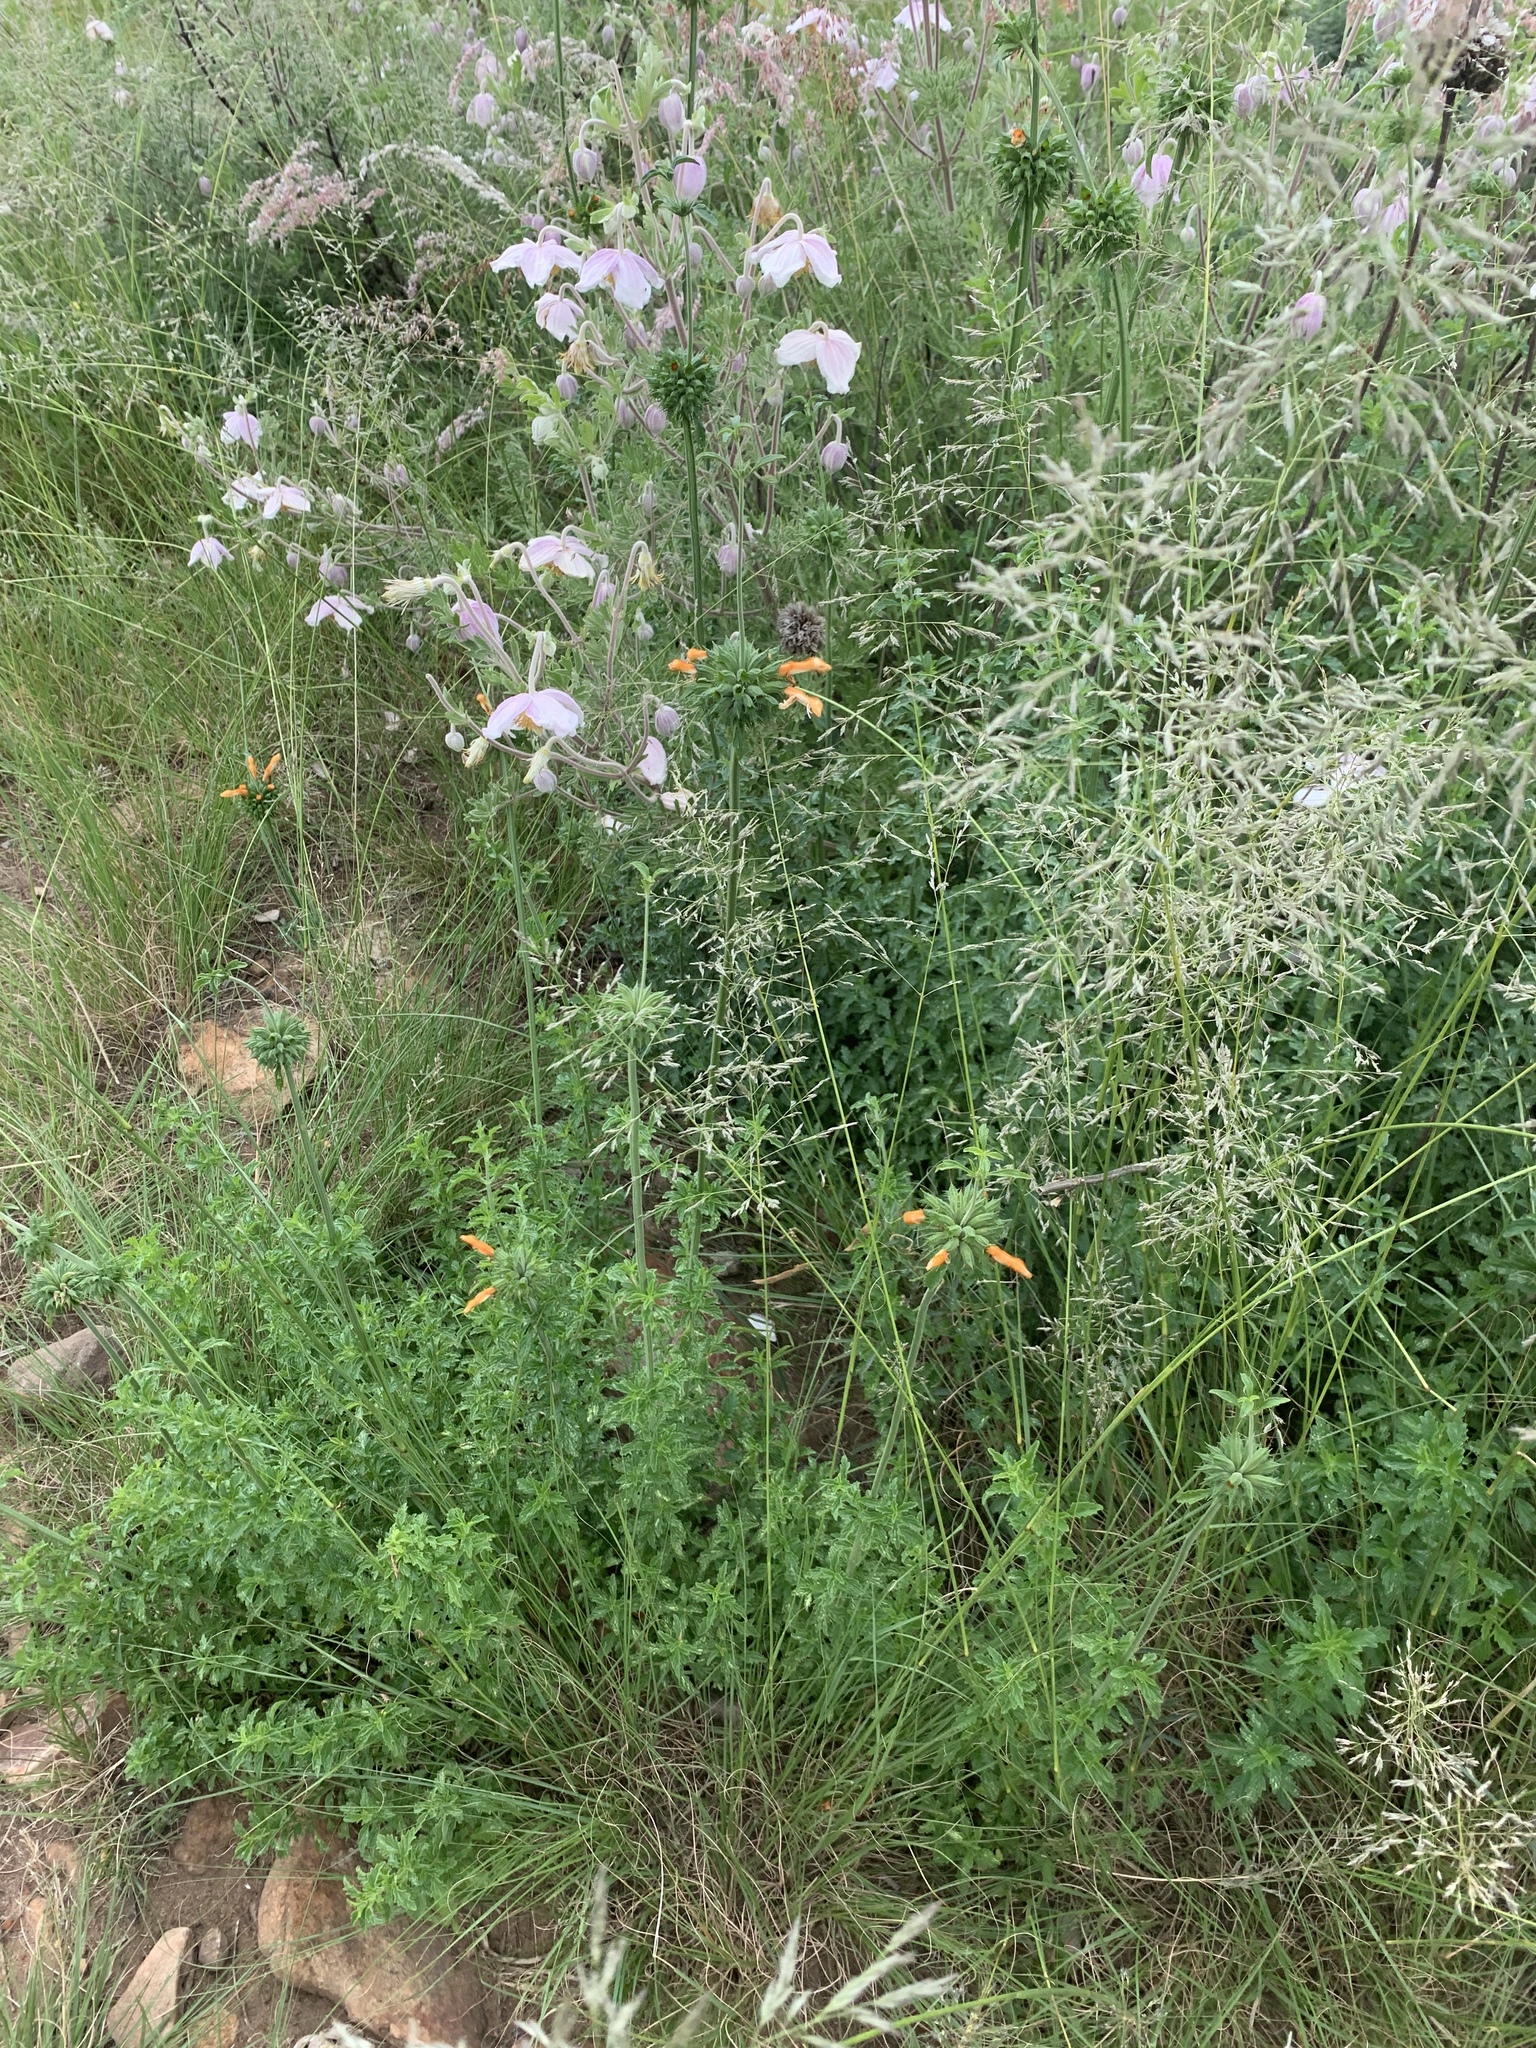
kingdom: Plantae
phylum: Tracheophyta
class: Magnoliopsida
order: Ranunculales
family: Ranunculaceae
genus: Clematis
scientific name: Clematis villosa
